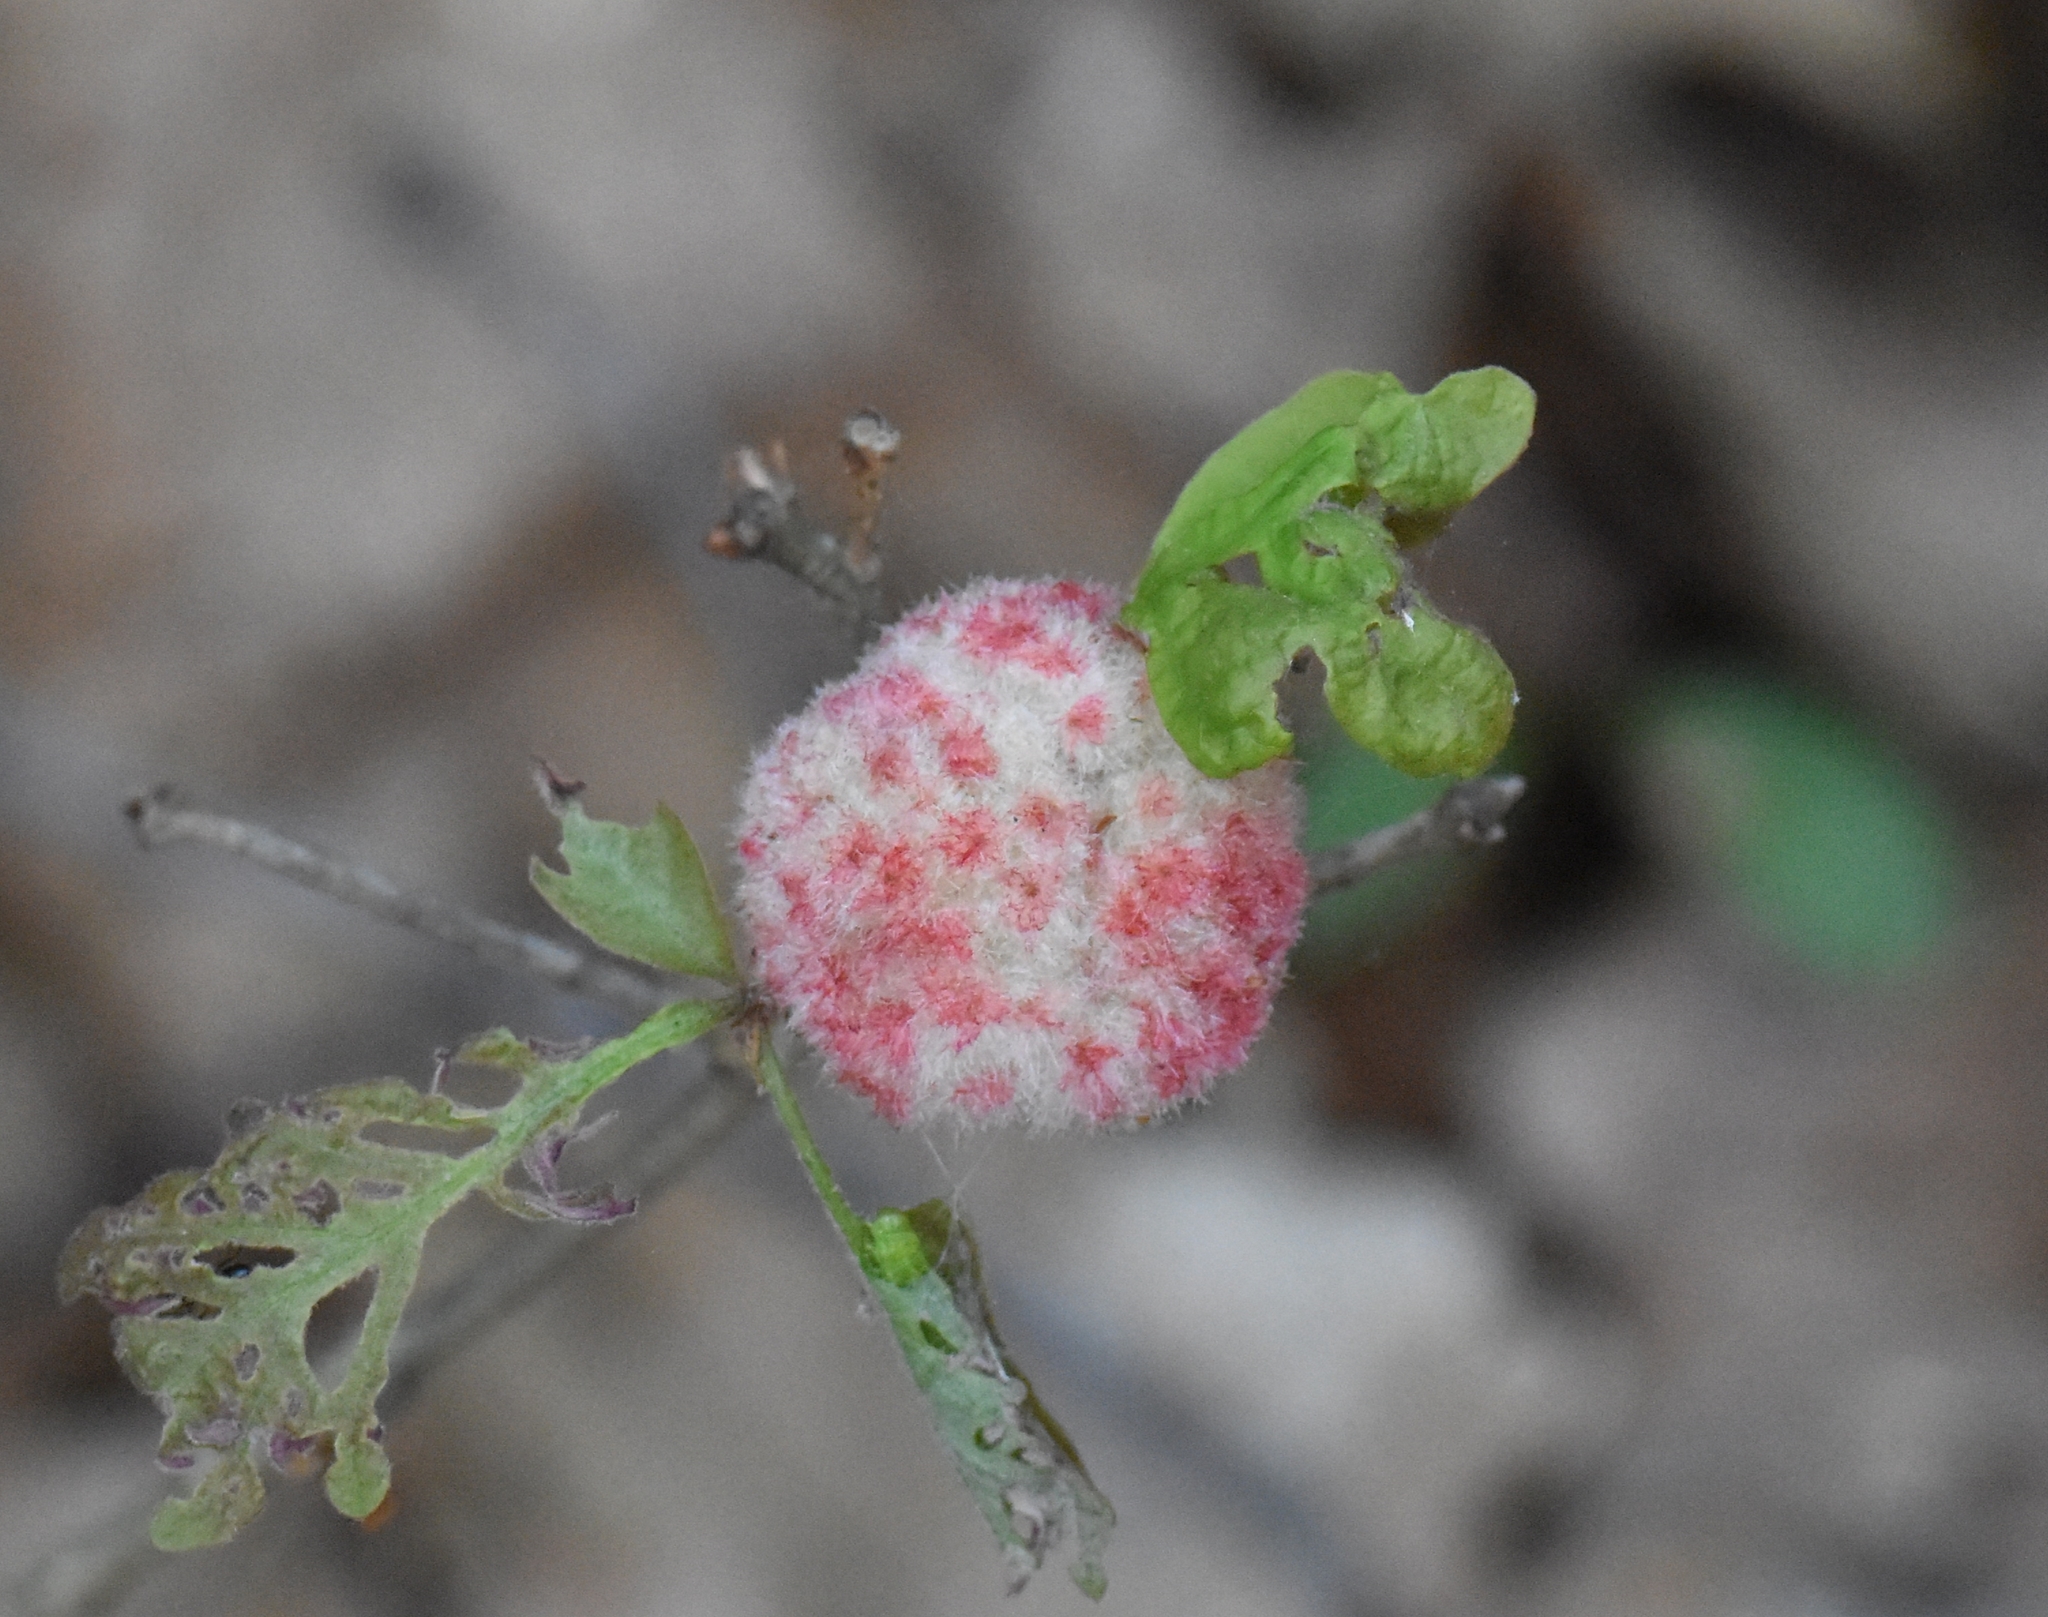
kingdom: Animalia
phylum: Arthropoda
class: Insecta
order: Hymenoptera
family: Cynipidae
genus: Callirhytis
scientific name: Callirhytis
